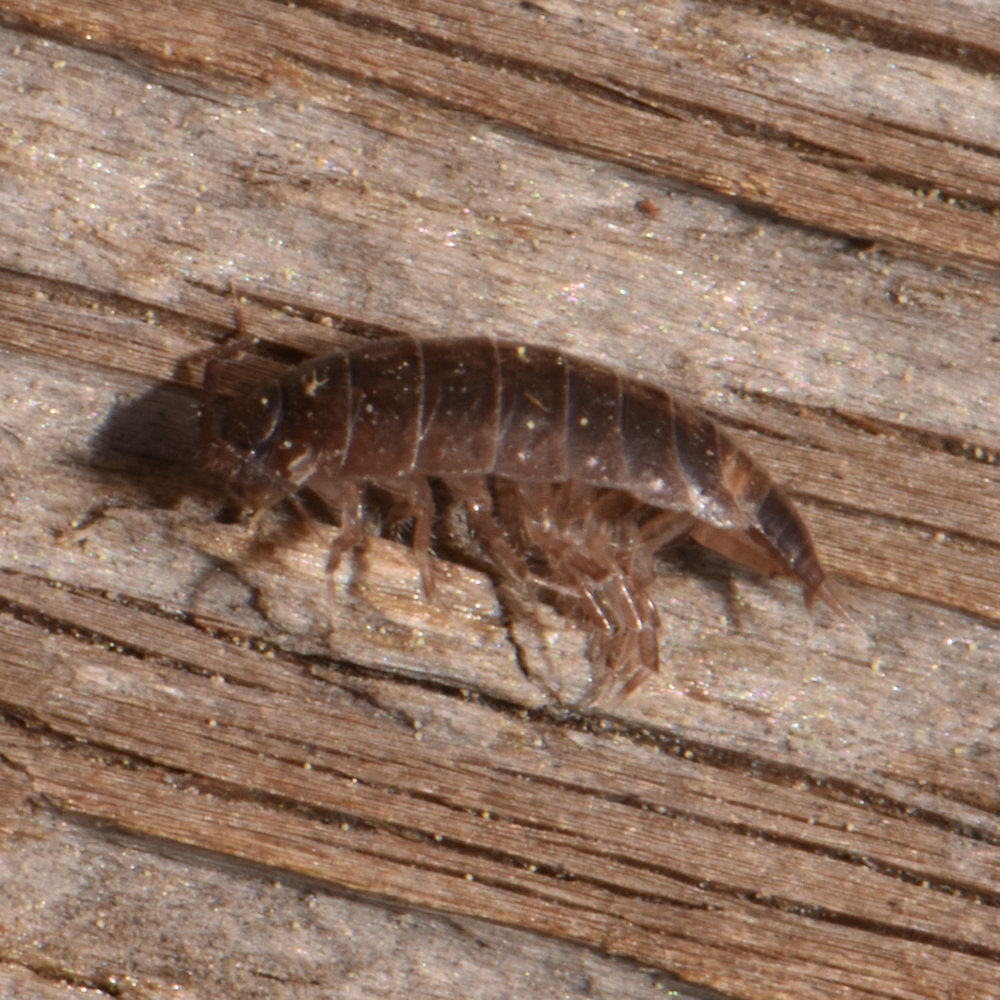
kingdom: Animalia
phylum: Arthropoda
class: Malacostraca
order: Isopoda
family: Trichoniscidae
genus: Hyloniscus
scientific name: Hyloniscus riparius
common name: Isopod
